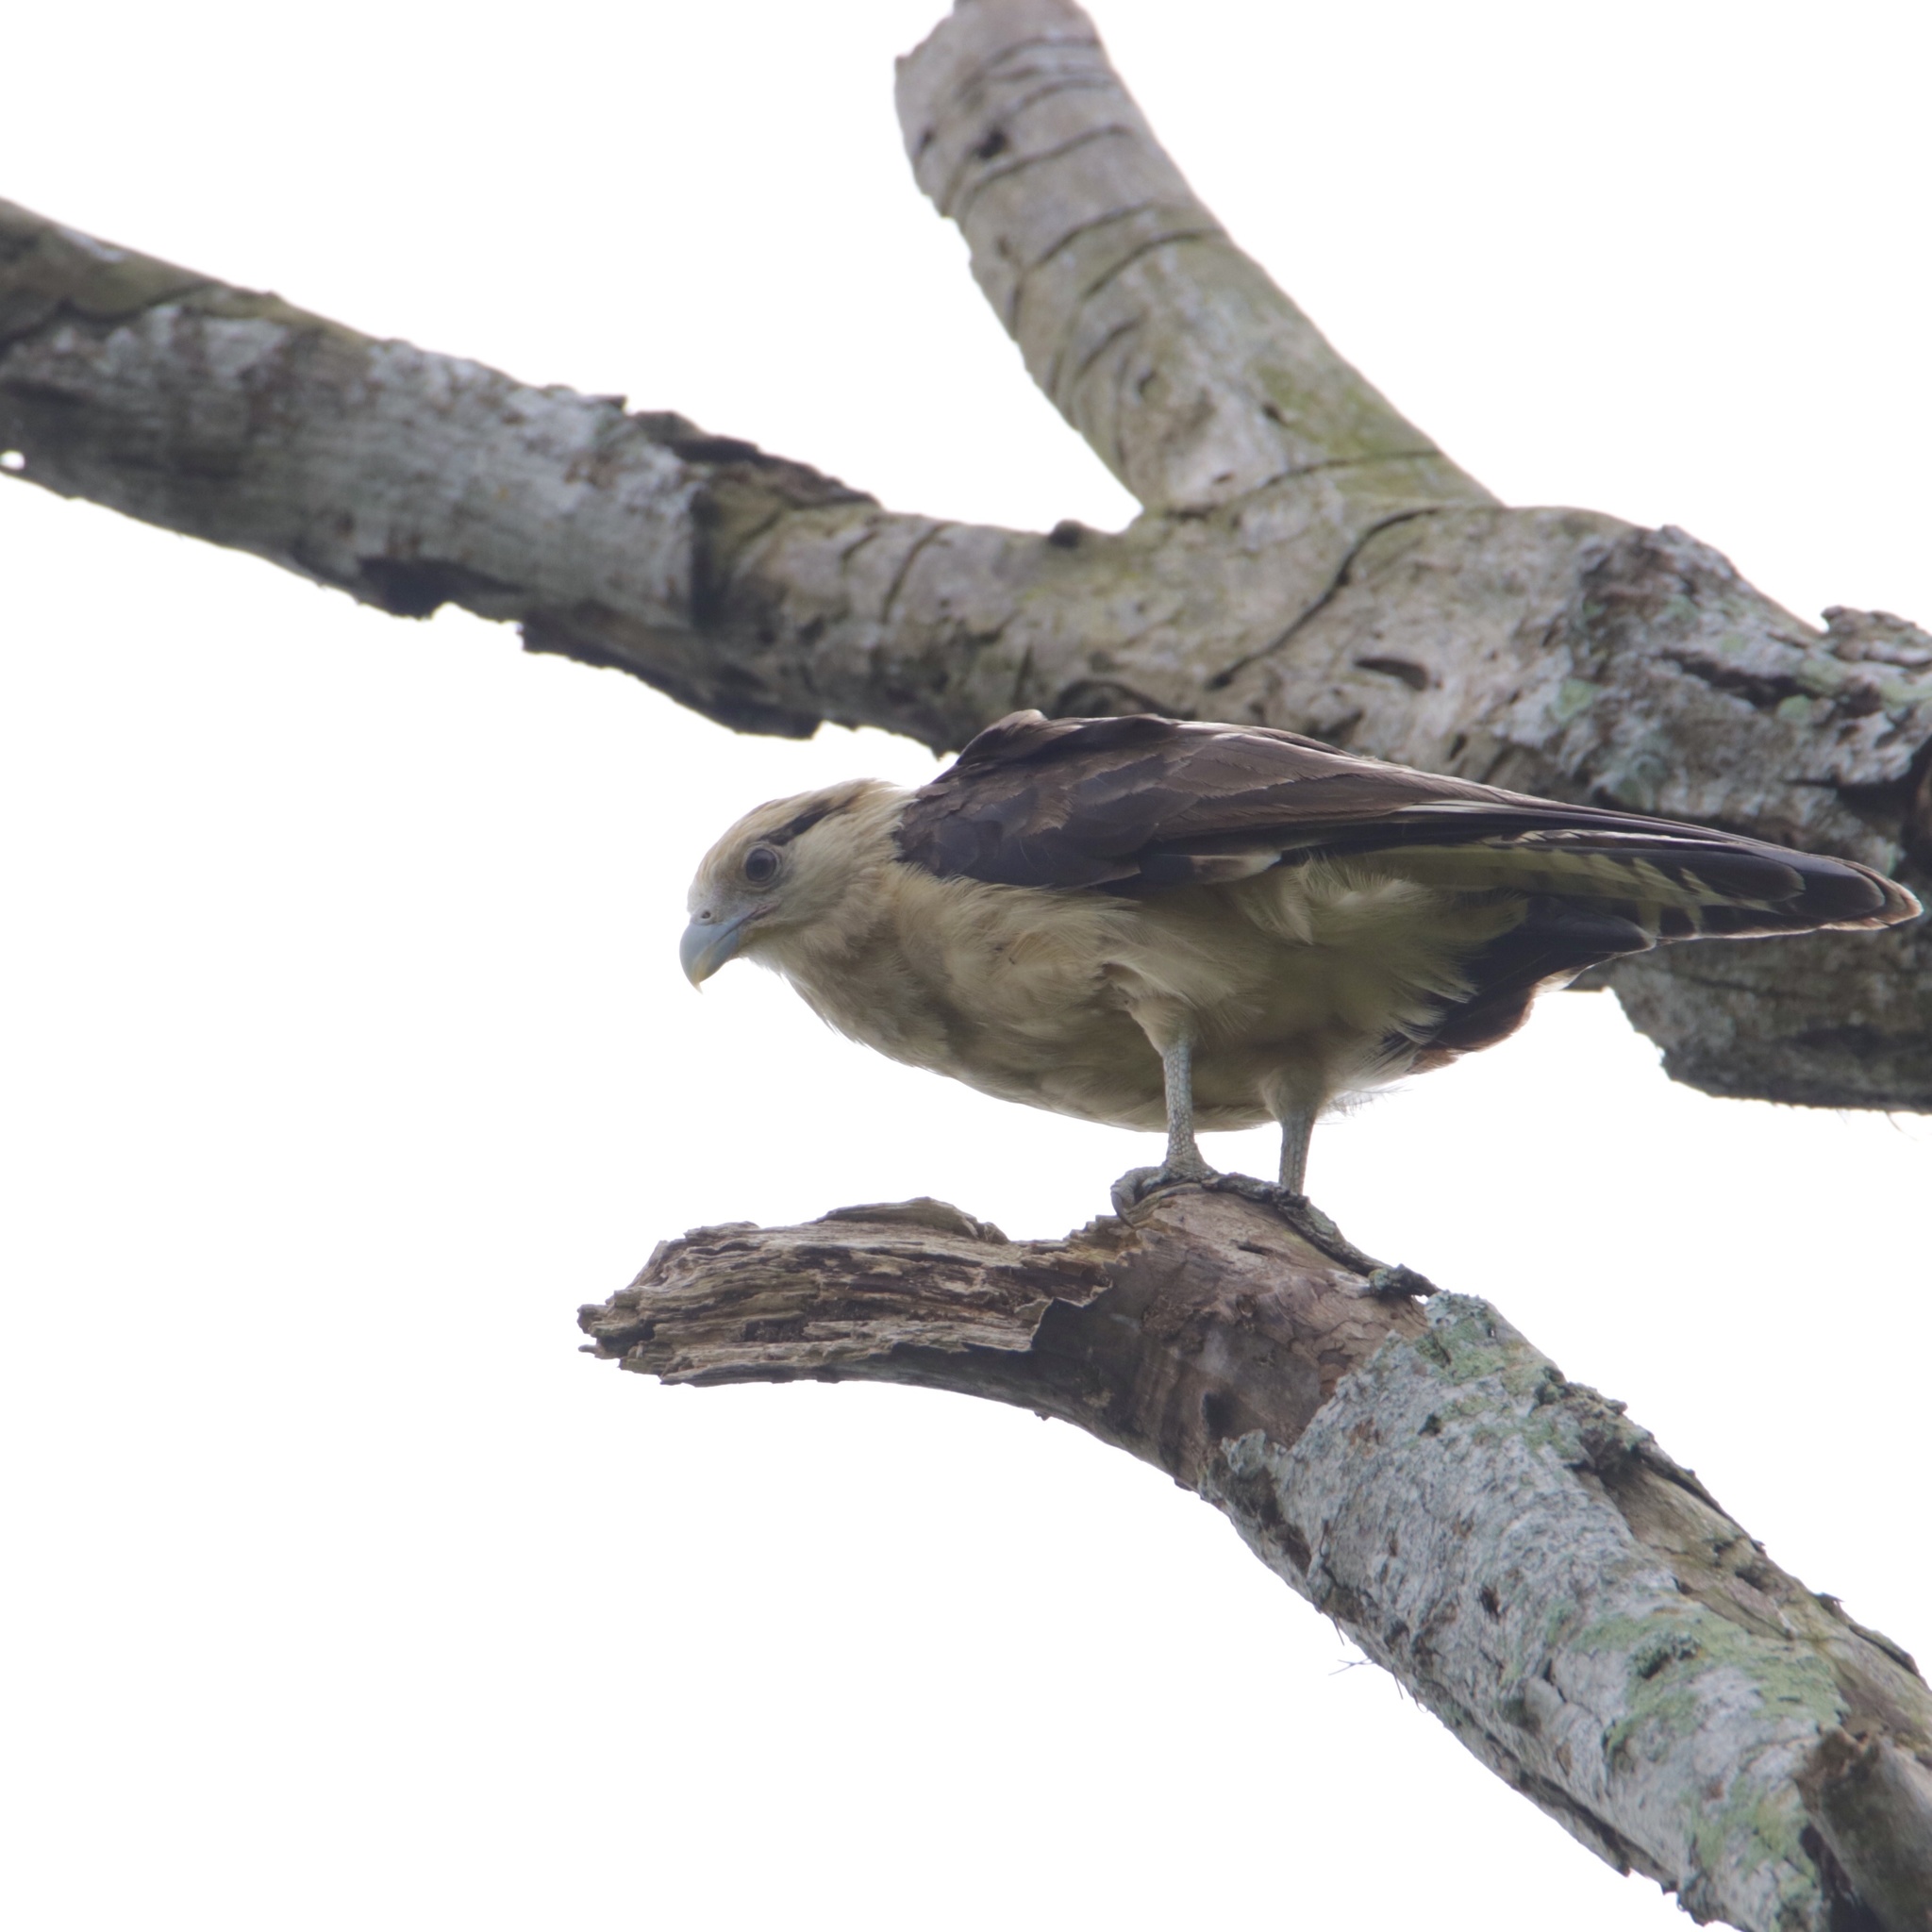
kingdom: Animalia
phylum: Chordata
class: Aves
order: Falconiformes
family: Falconidae
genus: Daptrius
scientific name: Daptrius
